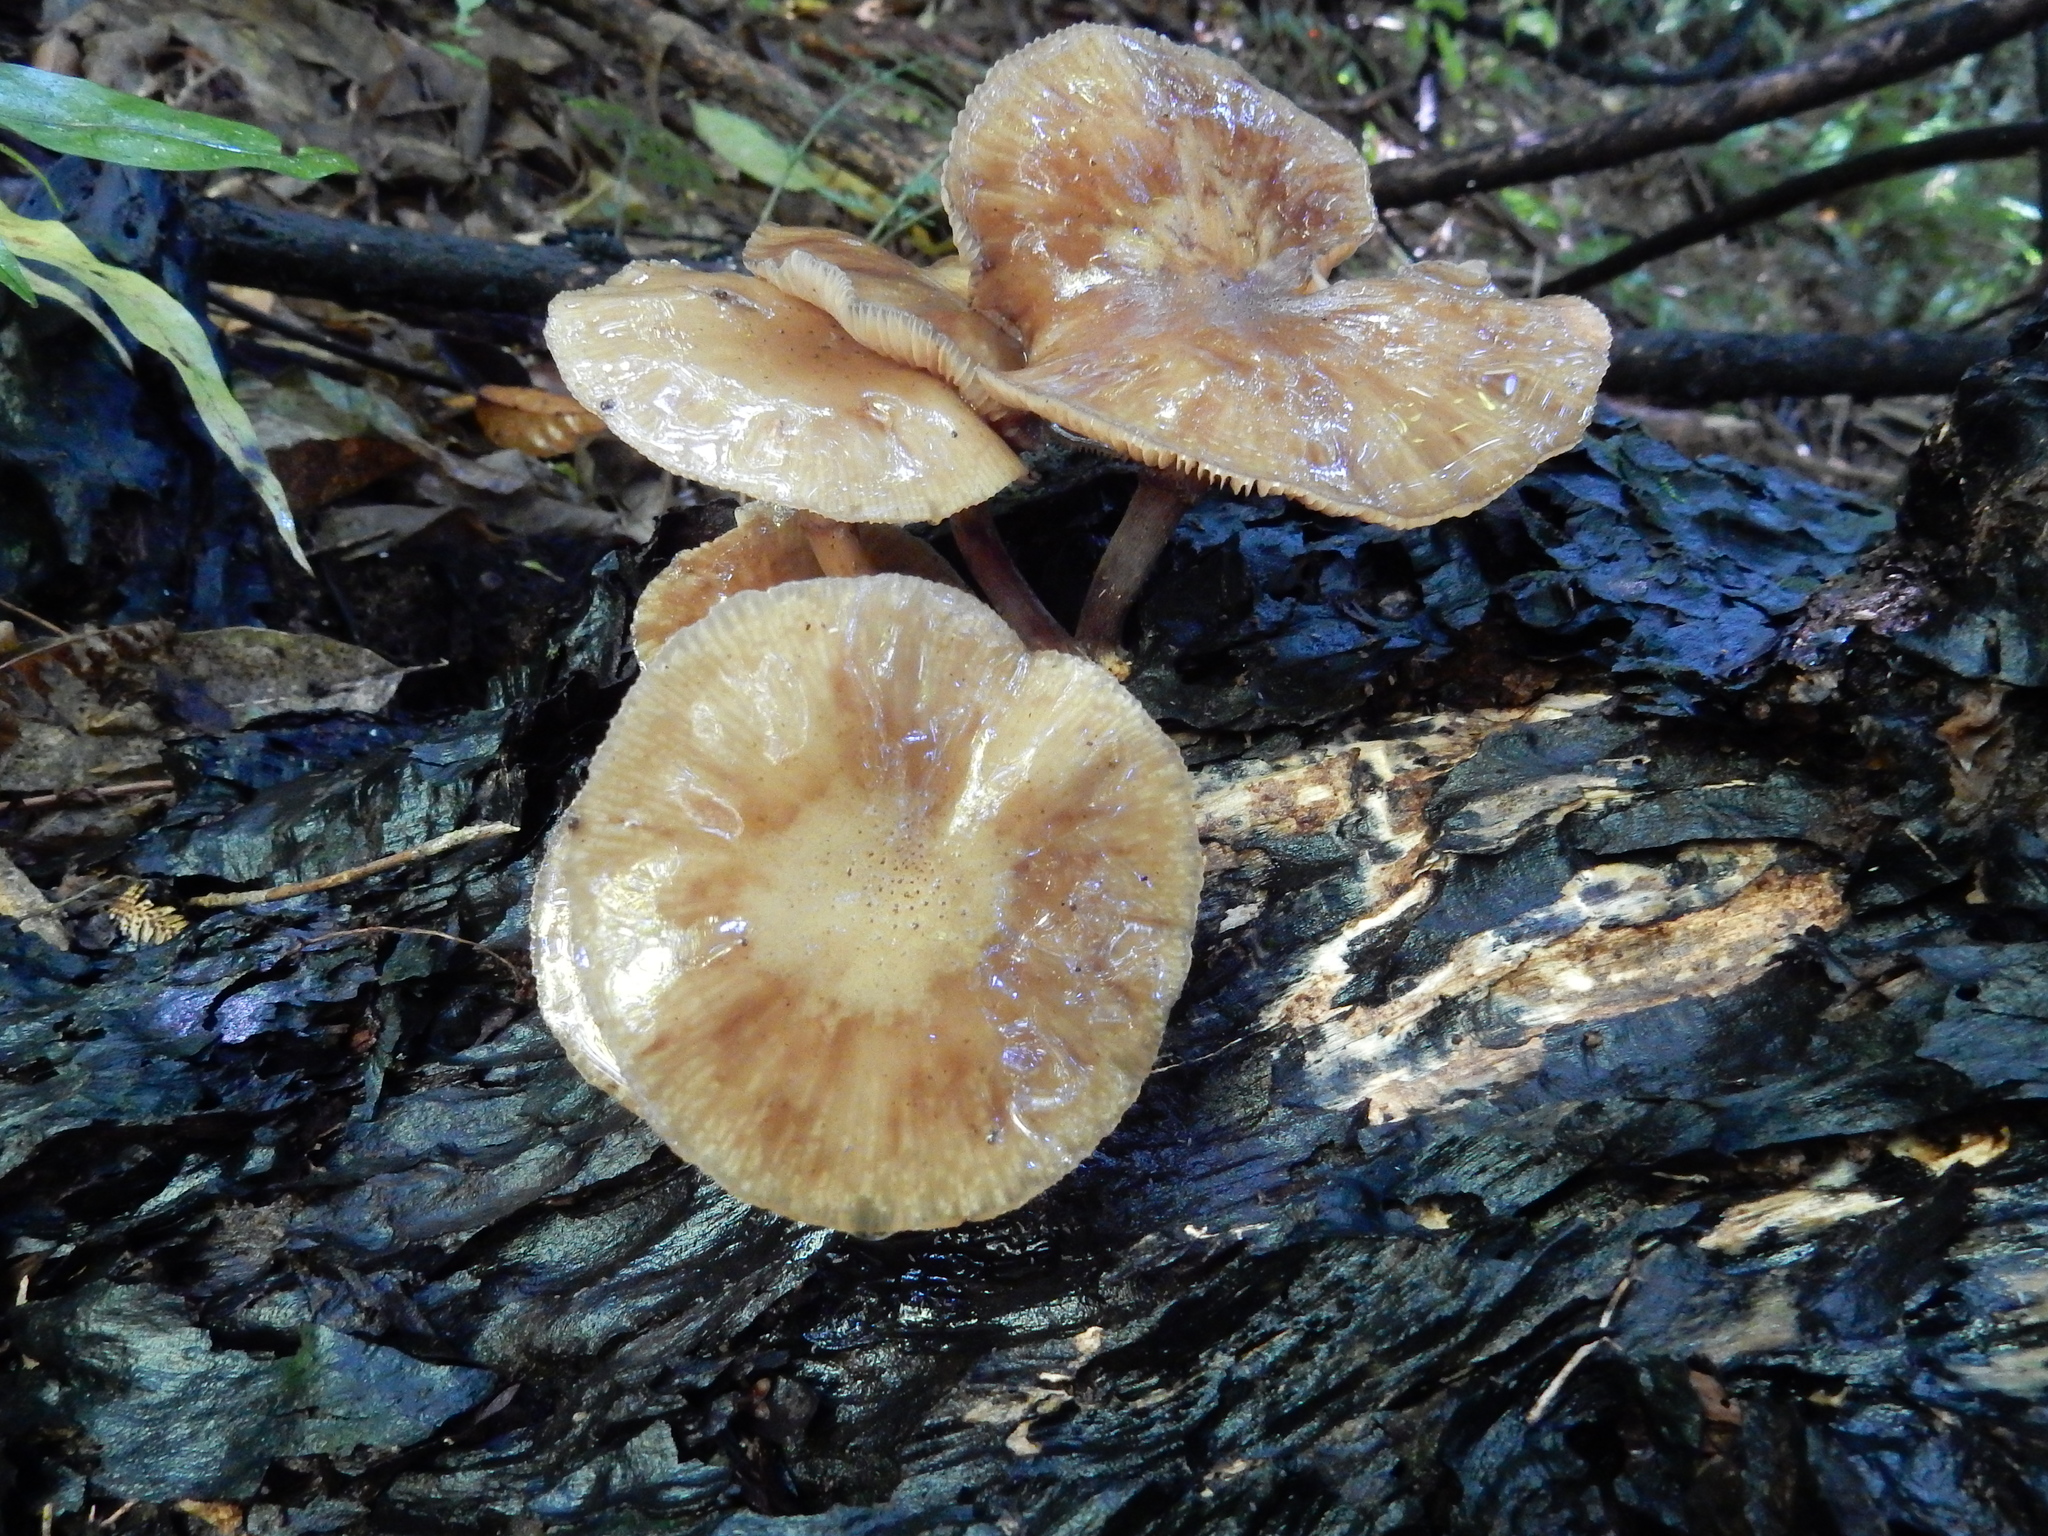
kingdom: Fungi
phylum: Basidiomycota
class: Agaricomycetes
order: Agaricales
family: Physalacriaceae
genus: Armillaria
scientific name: Armillaria novae-zelandiae
